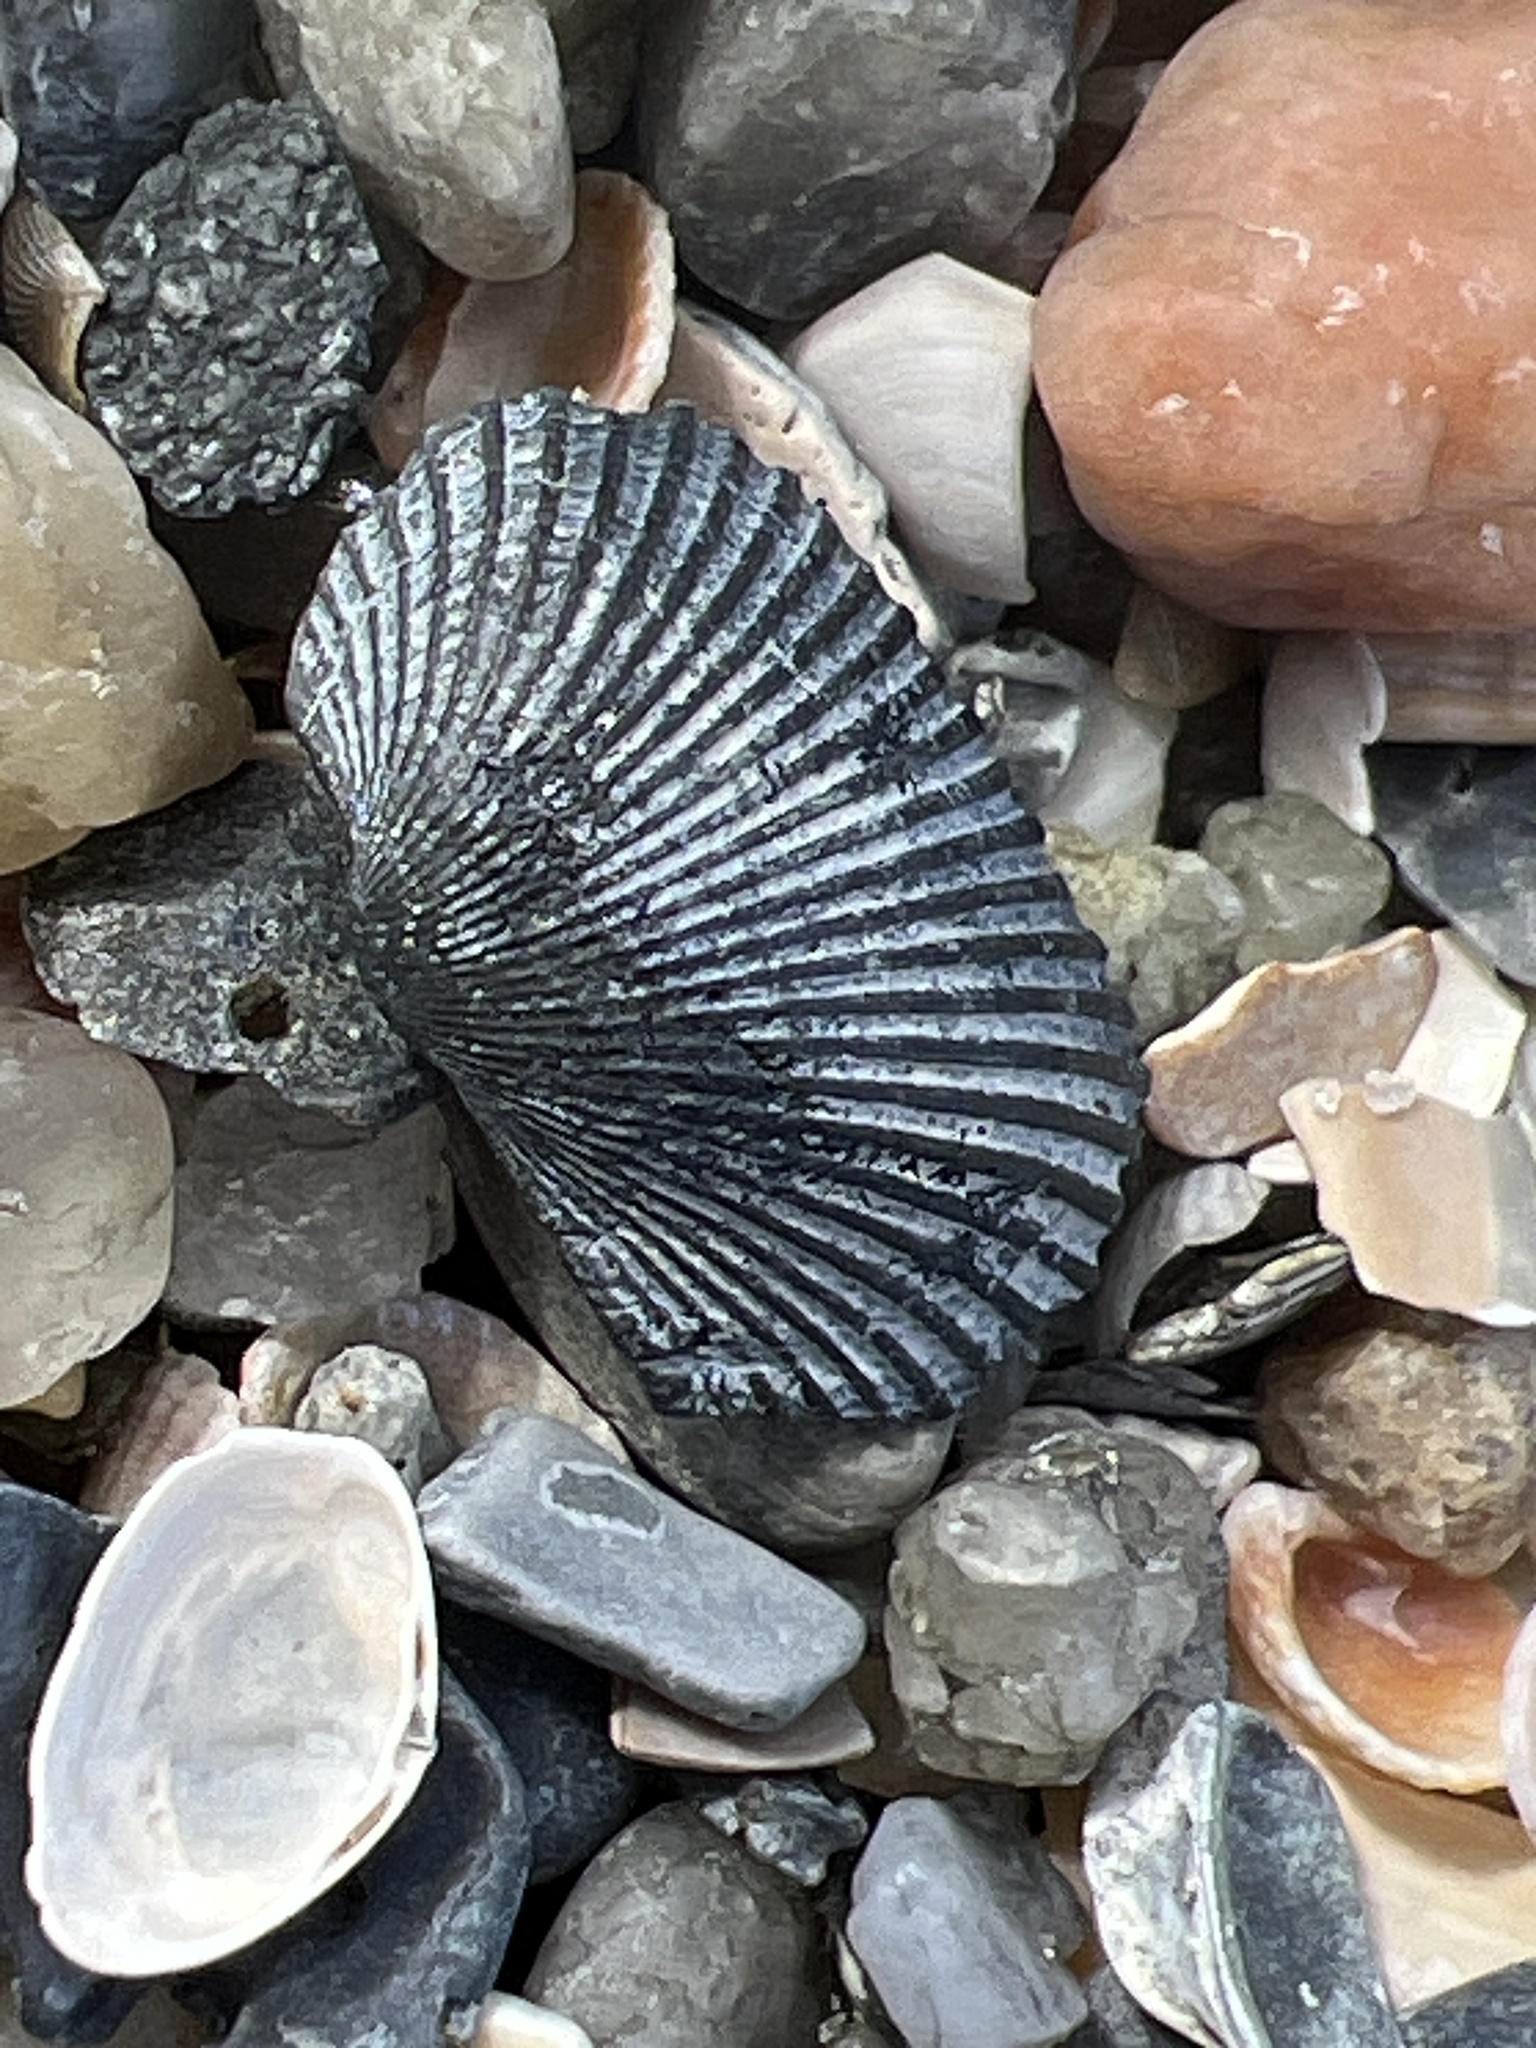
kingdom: Animalia
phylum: Mollusca
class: Bivalvia
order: Arcida
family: Arcidae
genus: Anadara
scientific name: Anadara transversa
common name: Transverse ark
